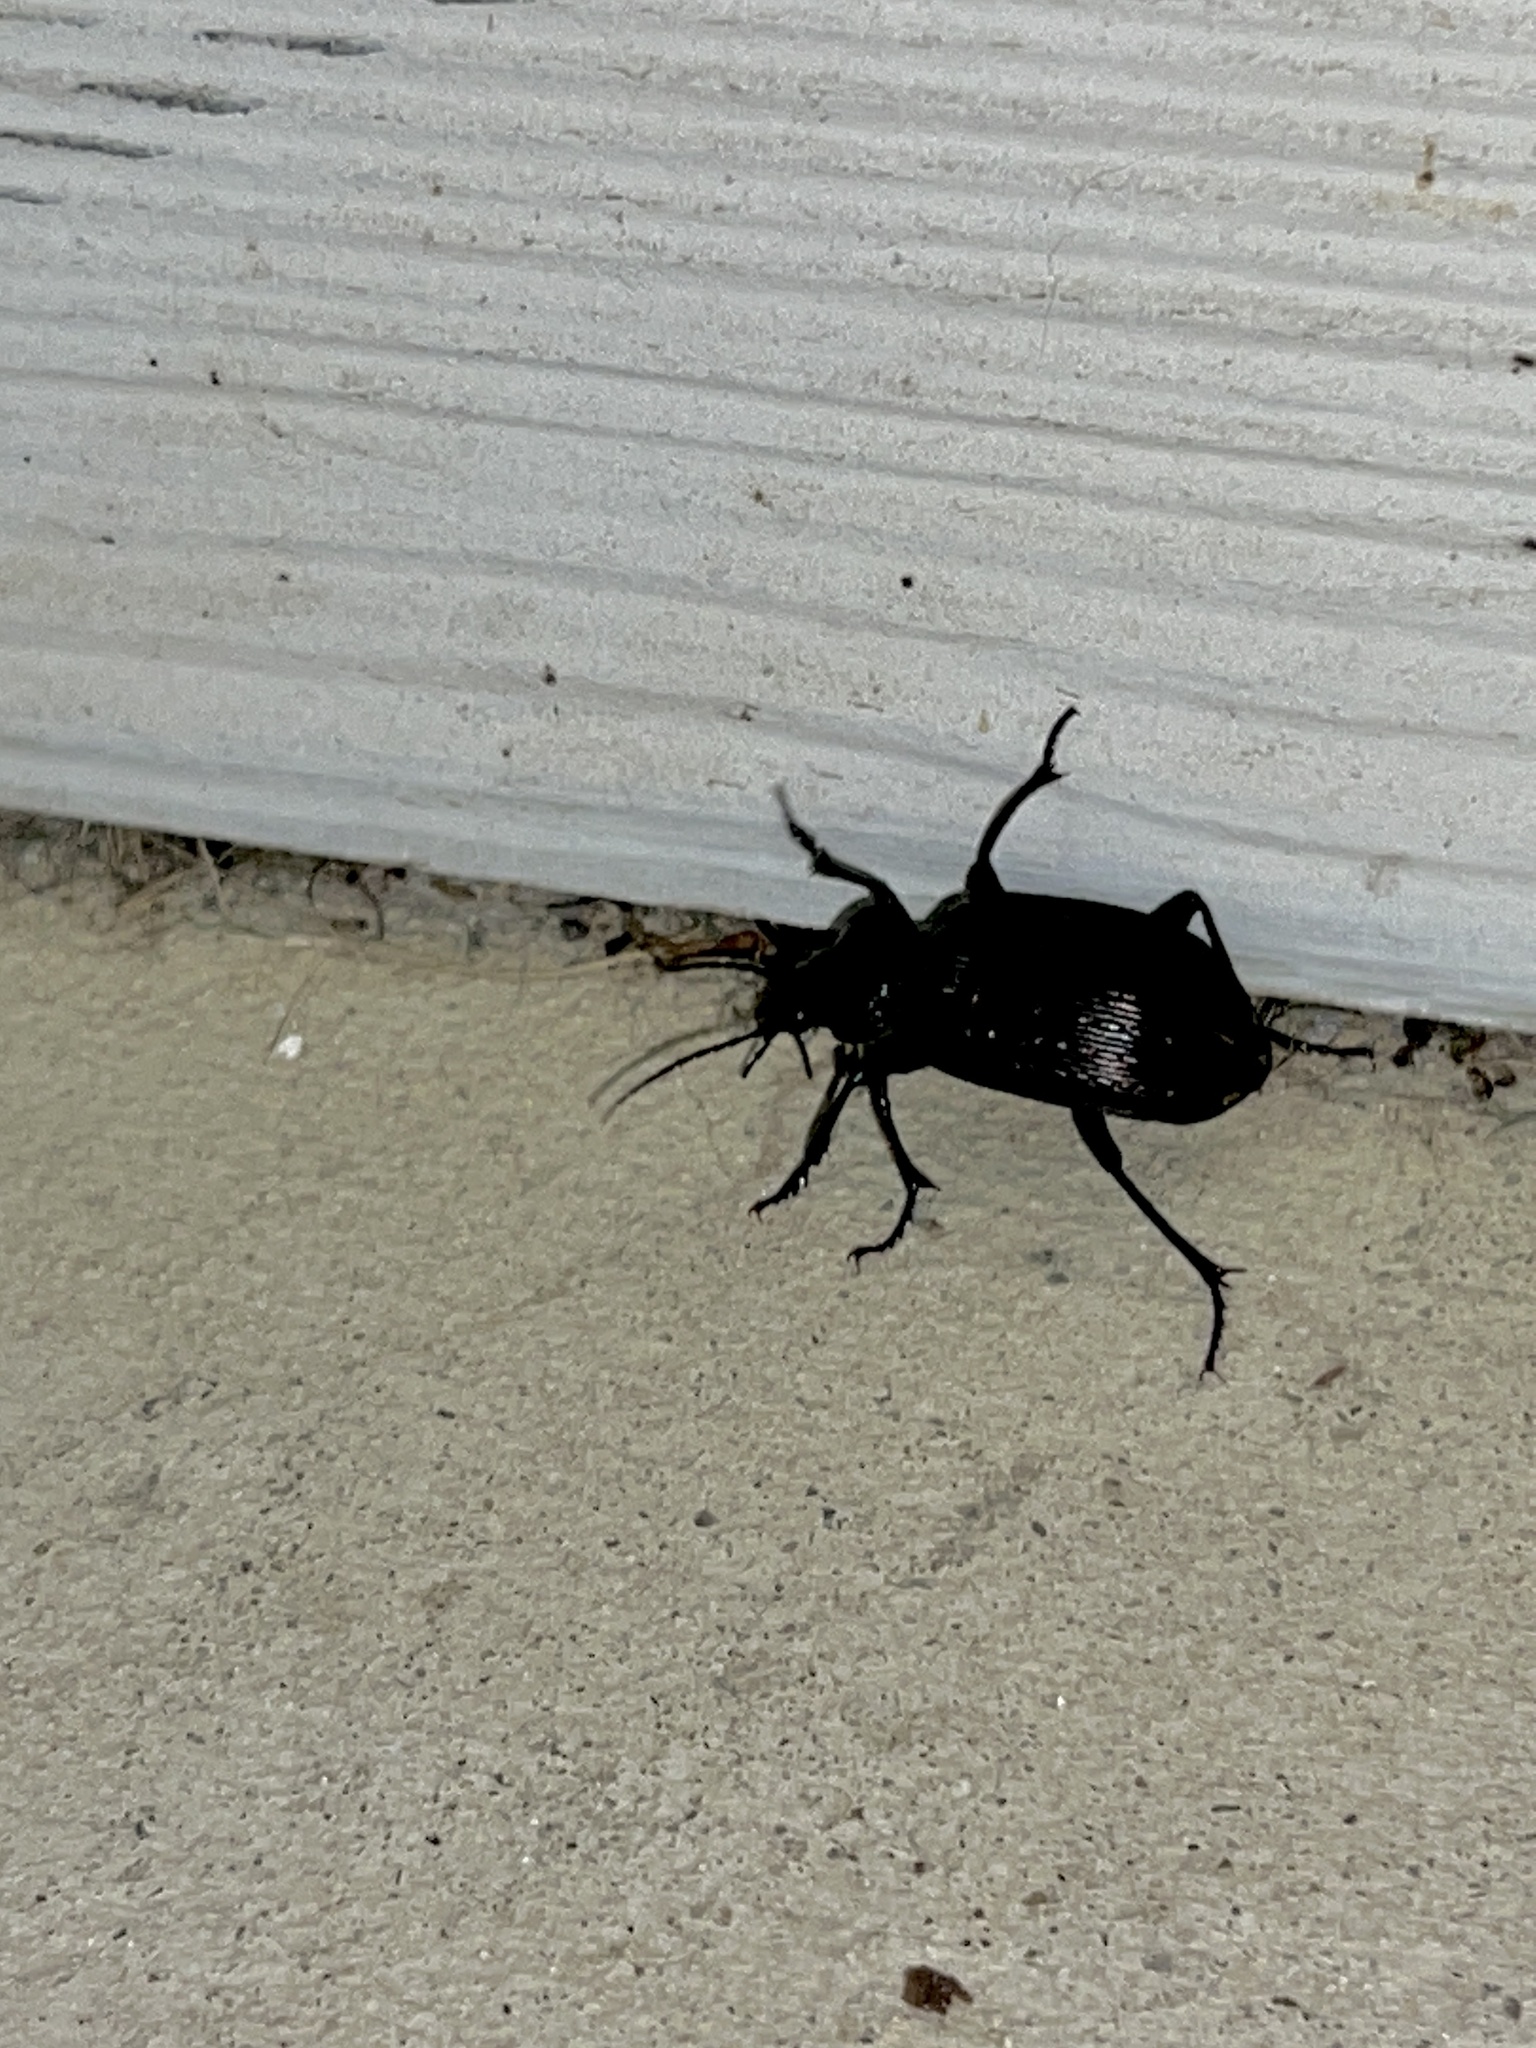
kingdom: Animalia
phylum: Arthropoda
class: Insecta
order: Coleoptera
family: Carabidae
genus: Calosoma
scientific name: Calosoma sayi
